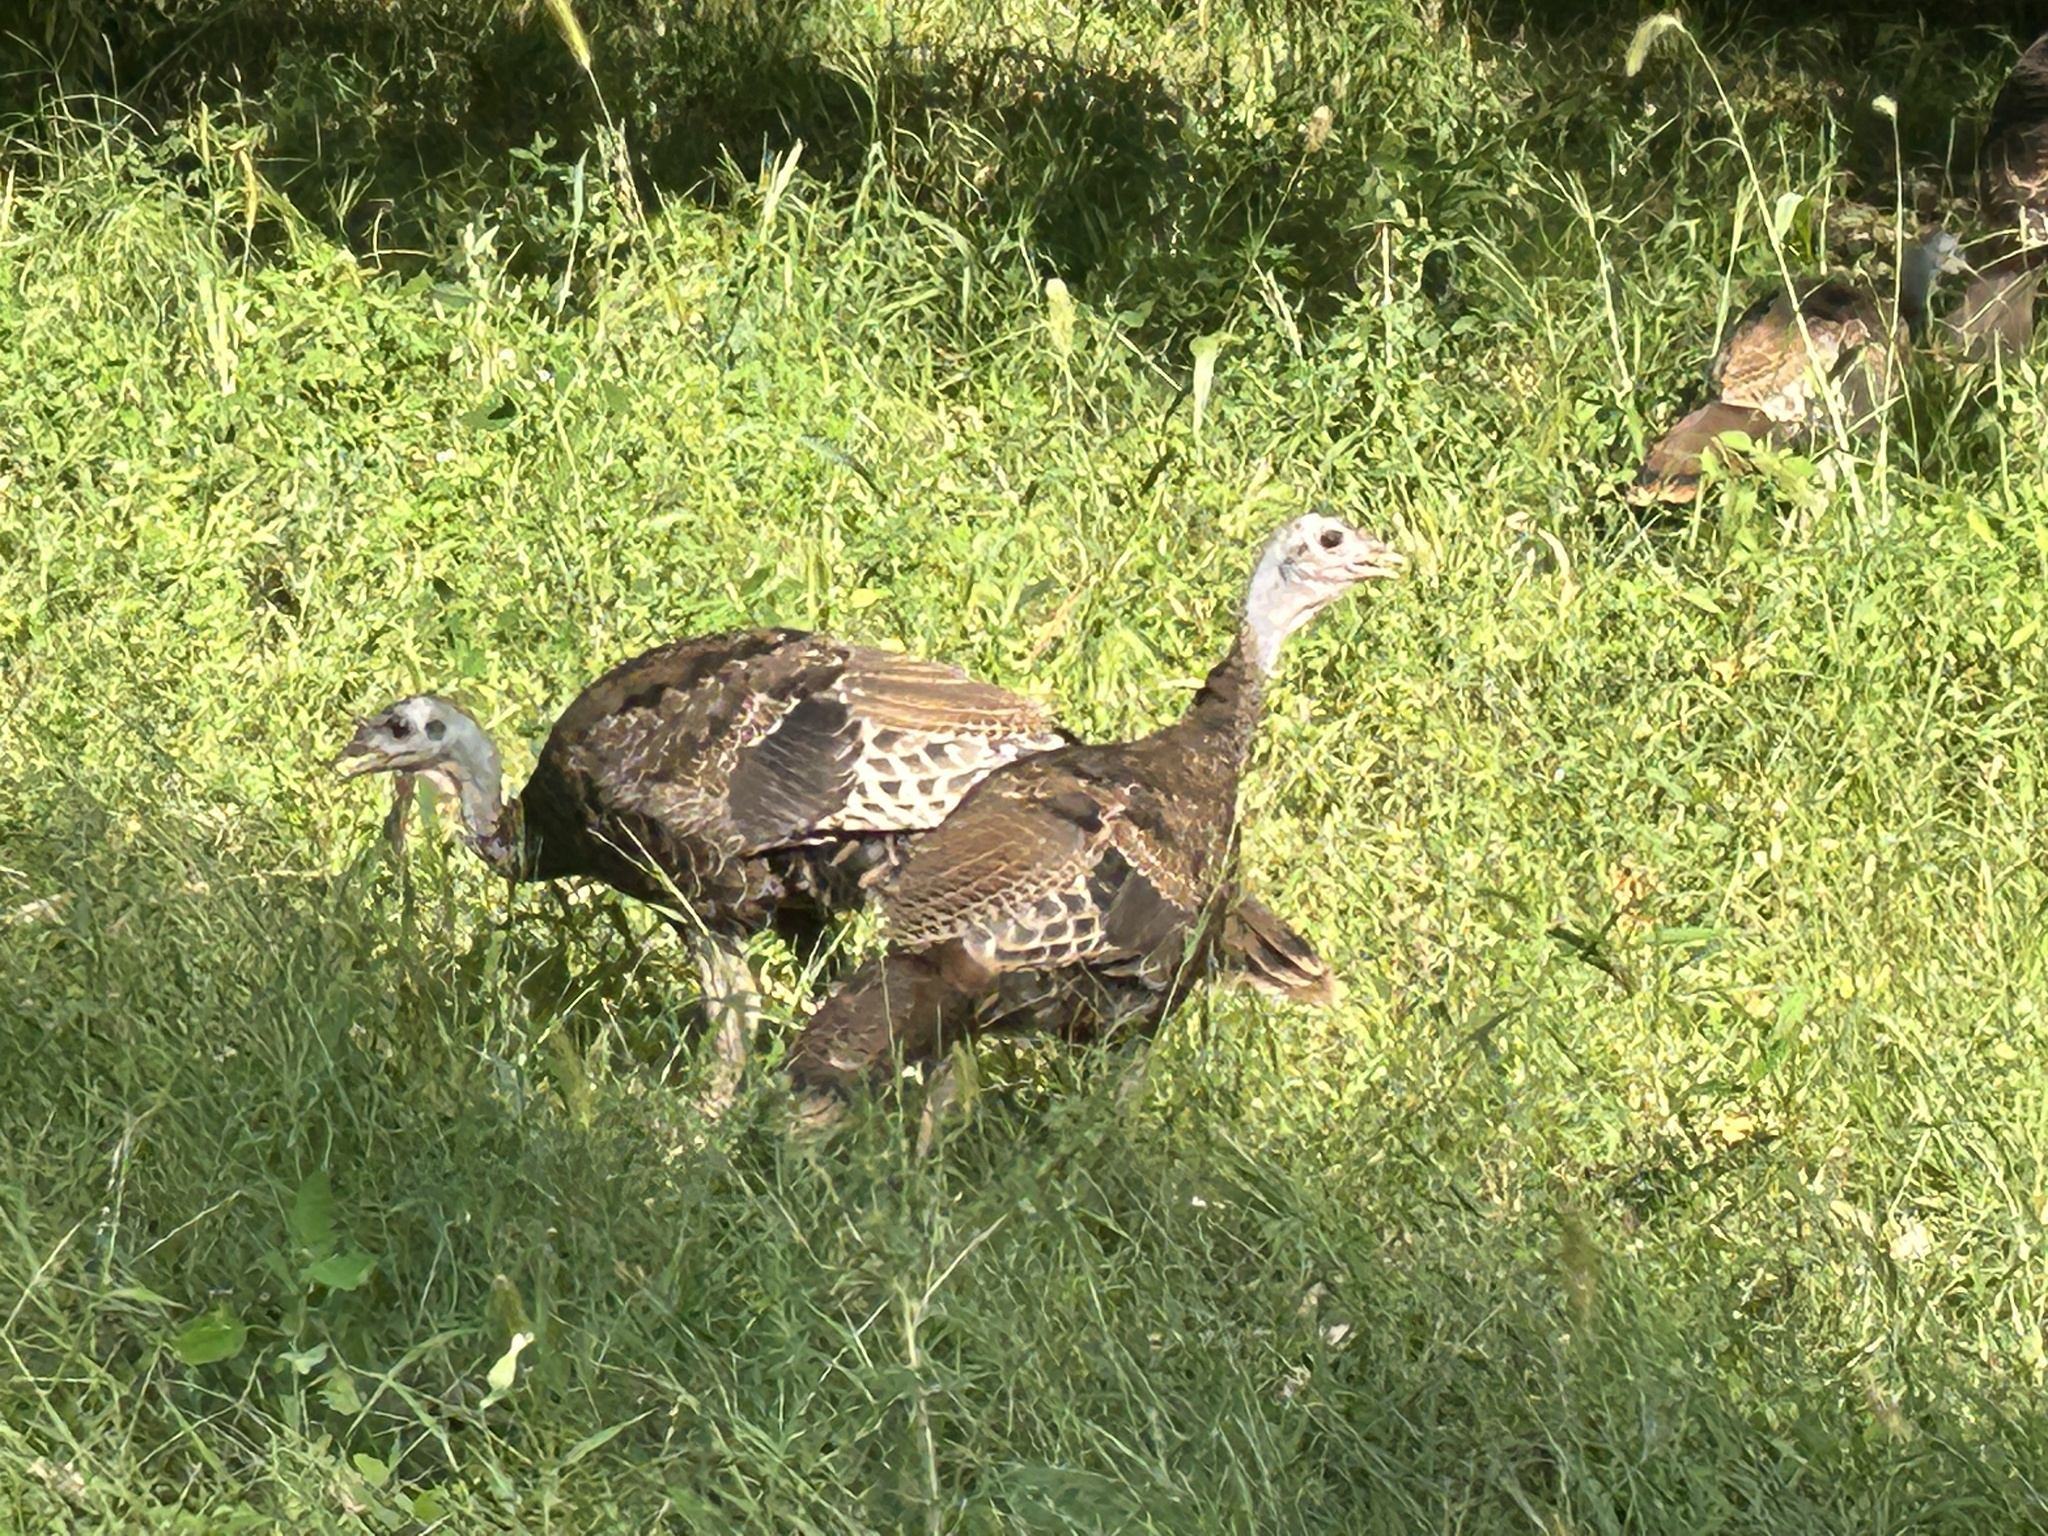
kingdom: Animalia
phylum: Chordata
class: Aves
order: Galliformes
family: Phasianidae
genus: Meleagris
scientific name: Meleagris gallopavo
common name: Wild turkey
